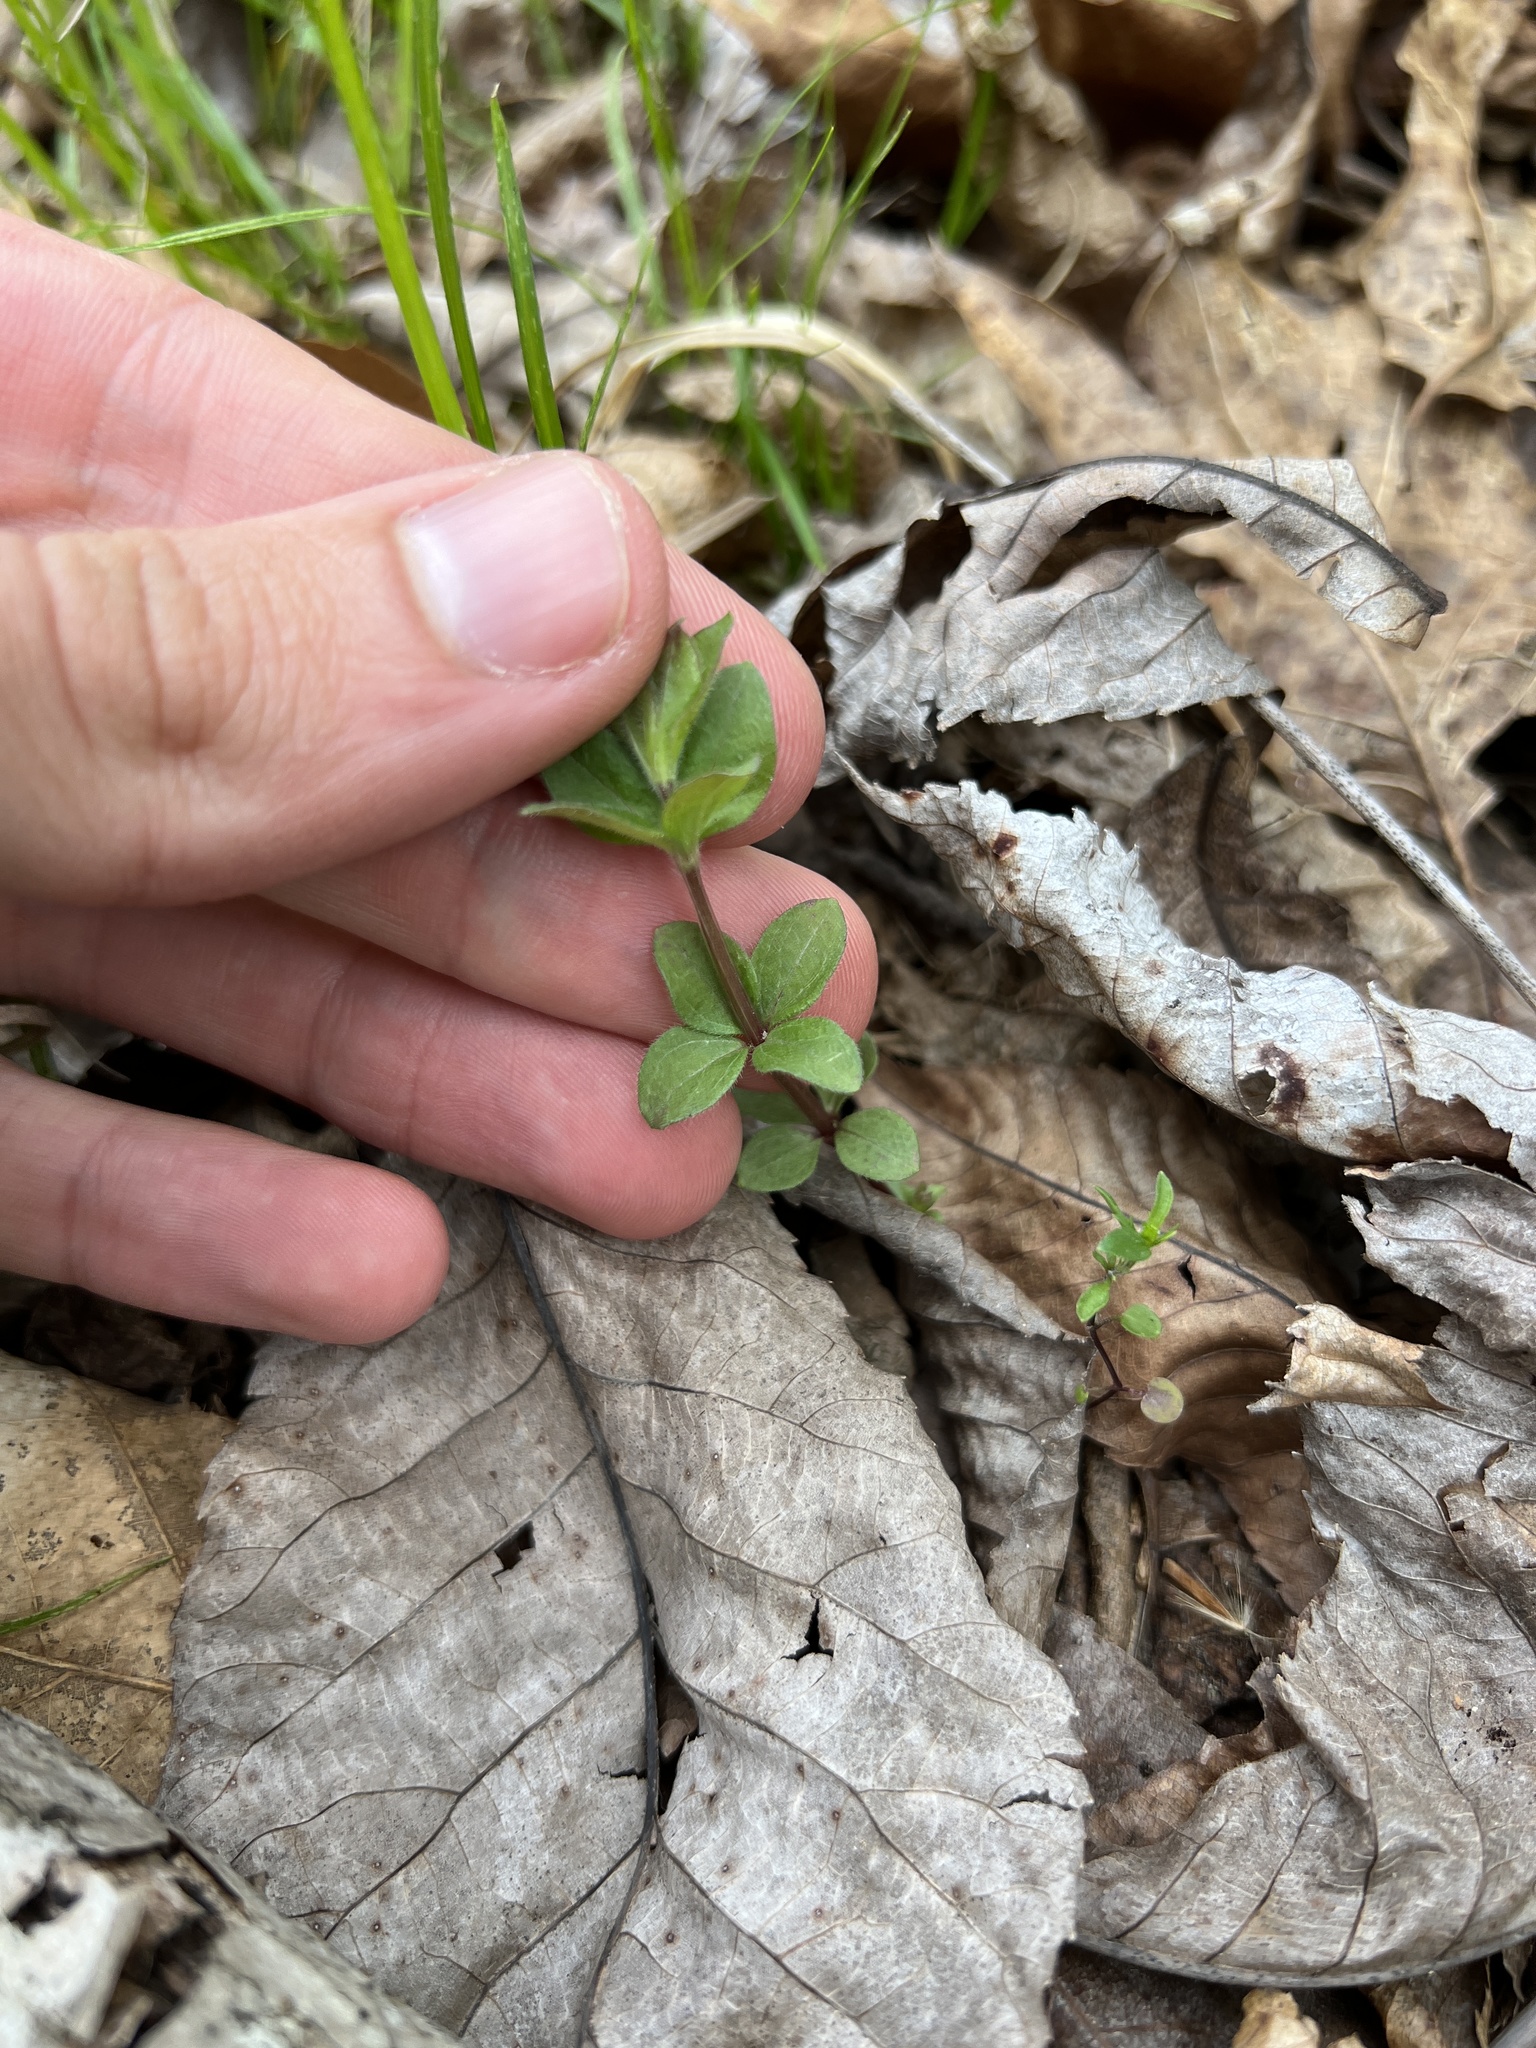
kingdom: Plantae
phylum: Tracheophyta
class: Magnoliopsida
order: Gentianales
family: Rubiaceae
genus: Galium
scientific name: Galium circaezans
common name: Forest bedstraw
